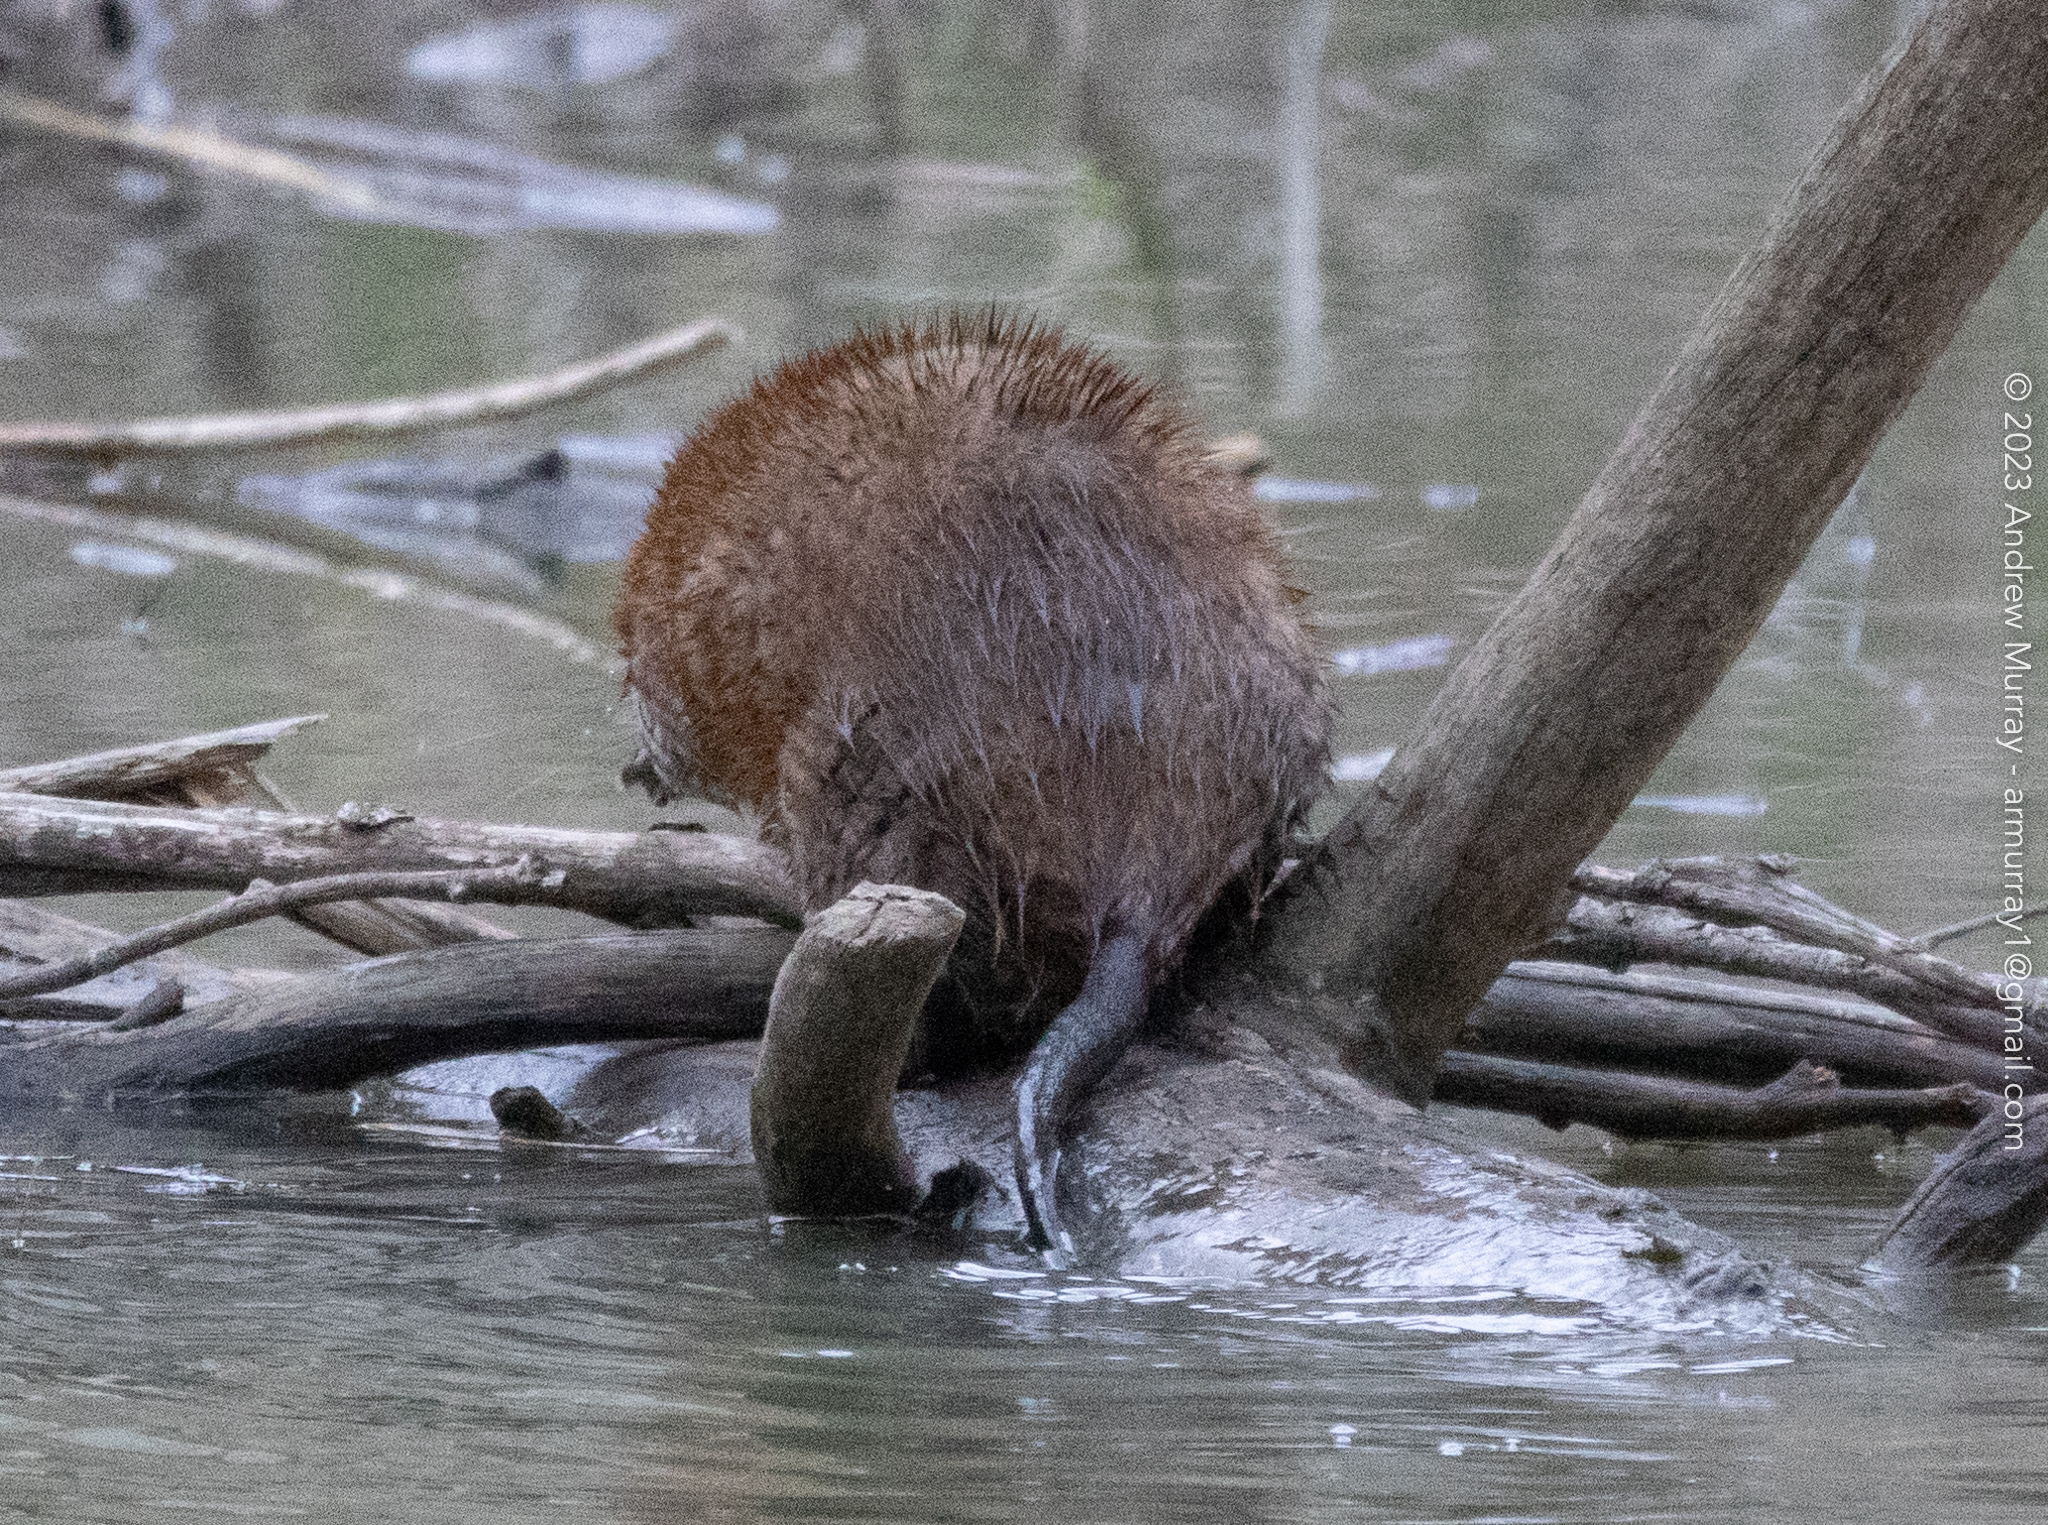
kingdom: Animalia
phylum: Chordata
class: Mammalia
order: Rodentia
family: Cricetidae
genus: Ondatra
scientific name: Ondatra zibethicus
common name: Muskrat
